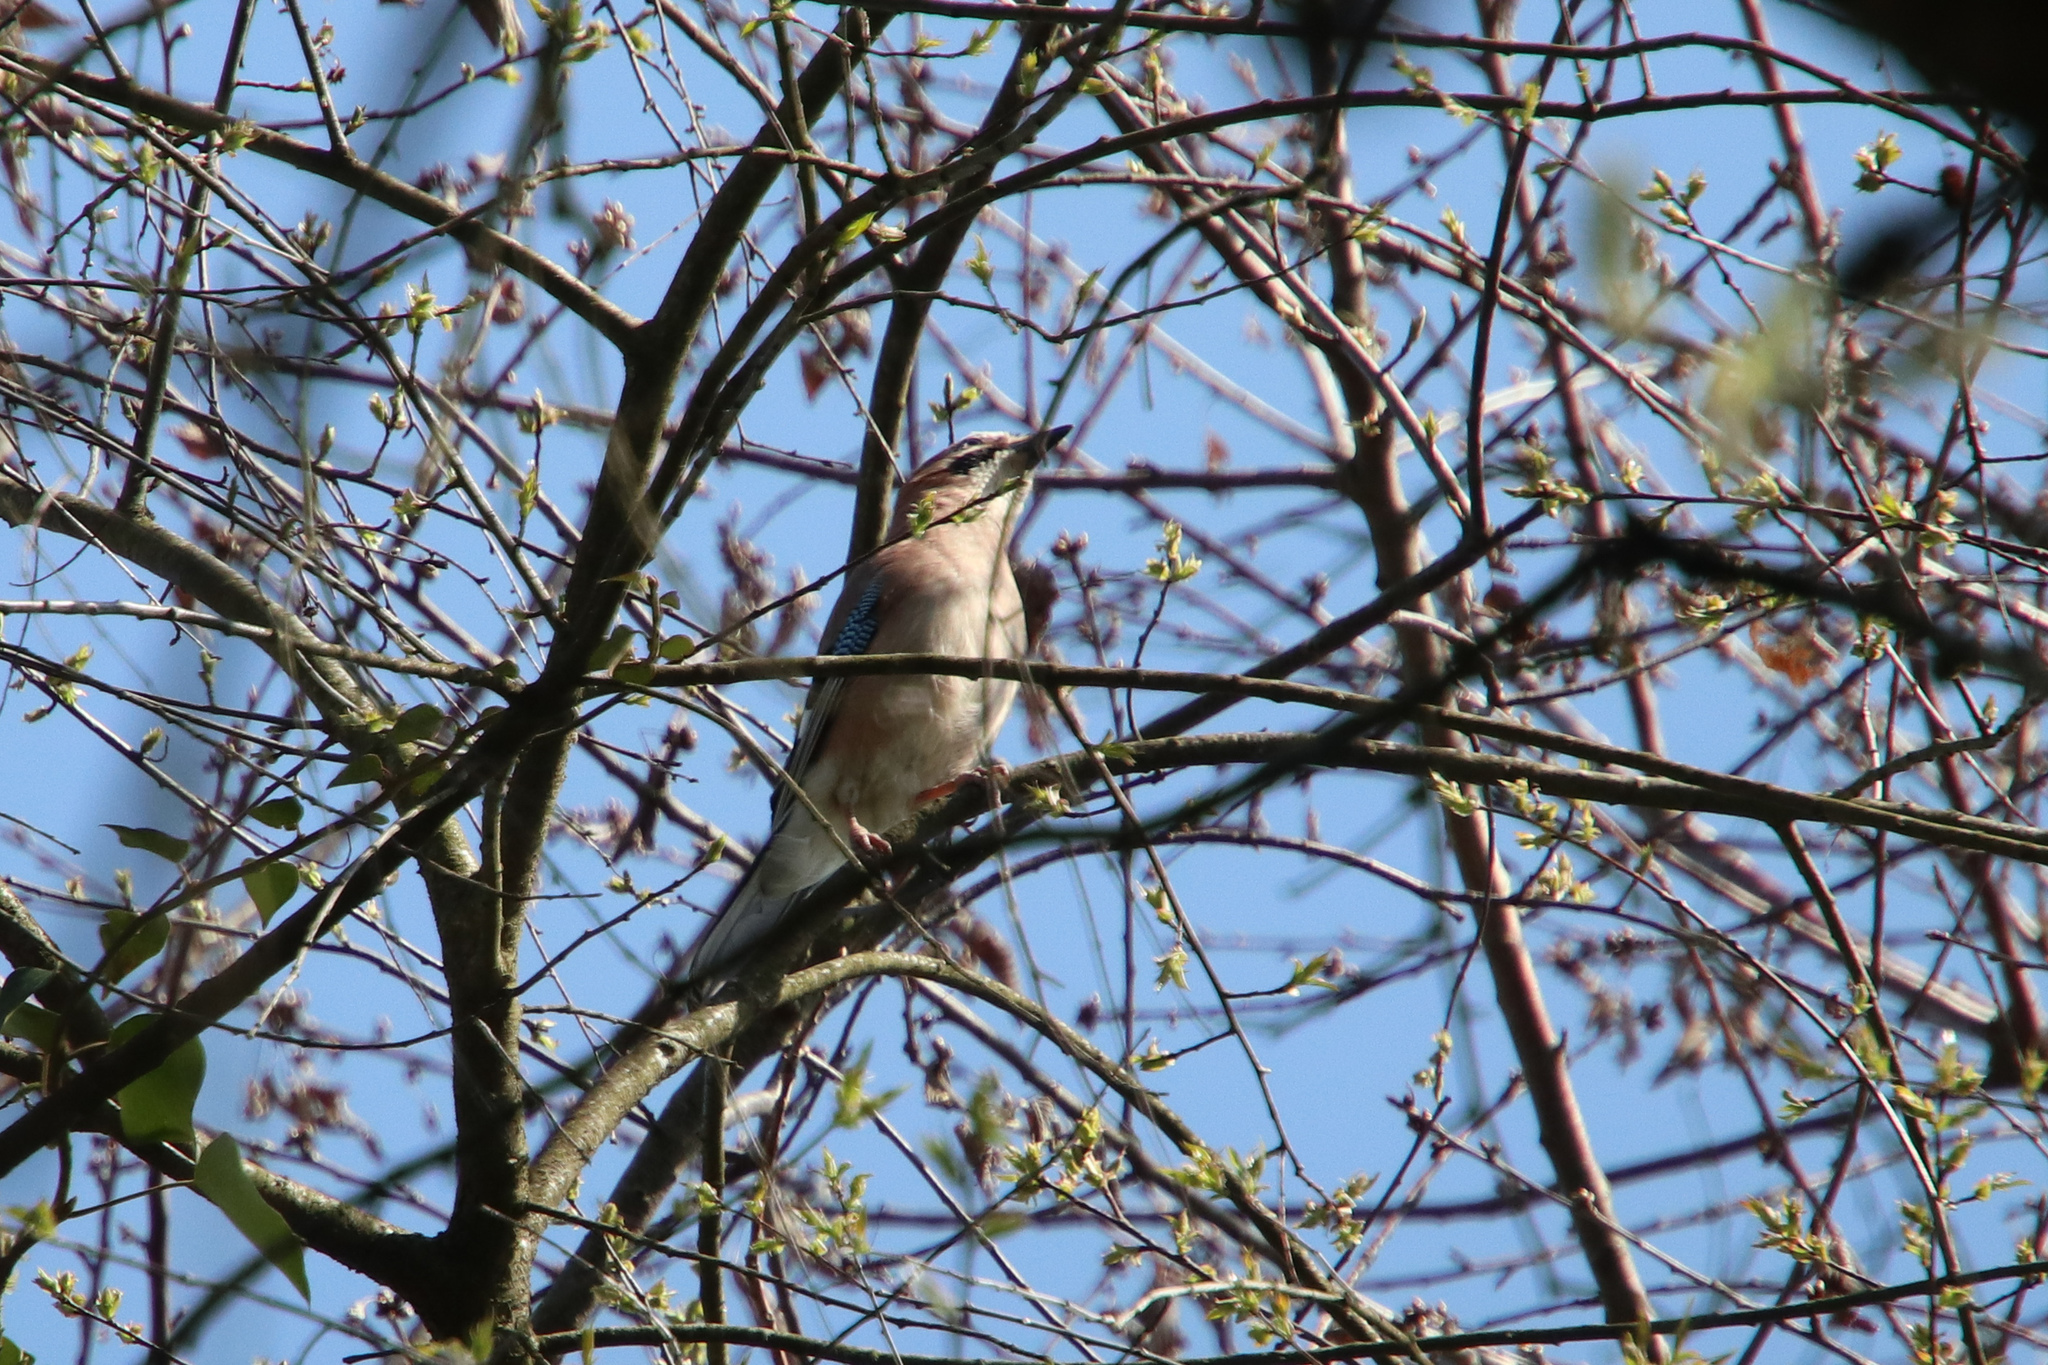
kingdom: Animalia
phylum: Chordata
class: Aves
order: Passeriformes
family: Corvidae
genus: Garrulus
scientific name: Garrulus glandarius
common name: Eurasian jay
